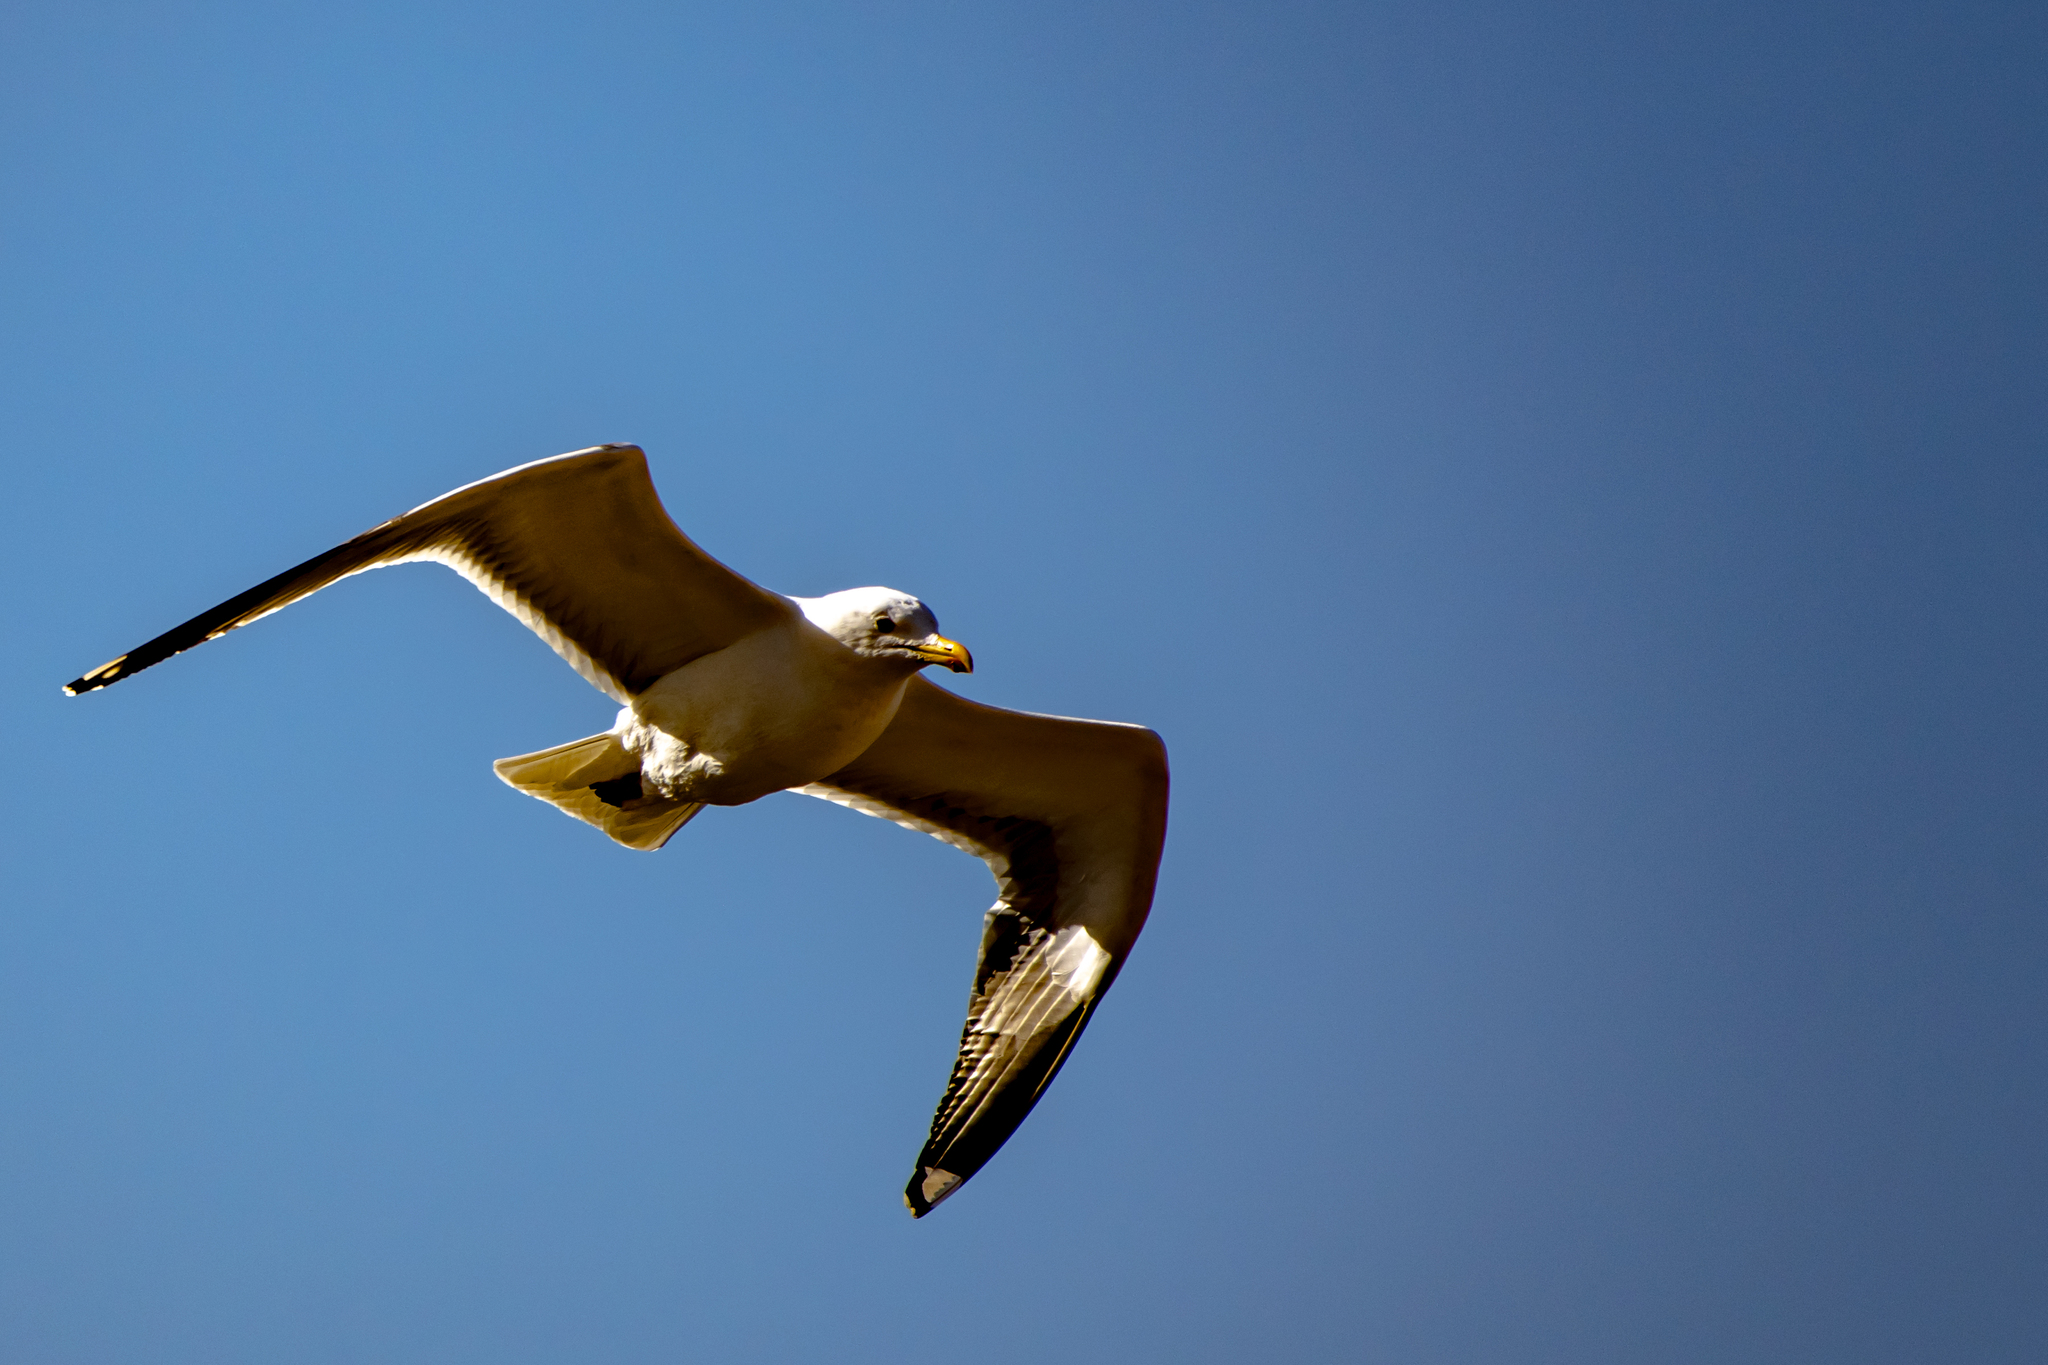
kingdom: Animalia
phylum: Chordata
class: Aves
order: Charadriiformes
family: Laridae
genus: Larus
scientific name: Larus michahellis
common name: Yellow-legged gull
